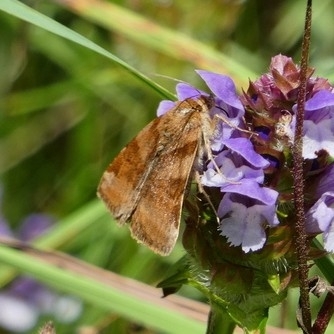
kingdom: Animalia
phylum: Arthropoda
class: Insecta
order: Lepidoptera
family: Erebidae
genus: Euclidia
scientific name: Euclidia glyphica
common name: Burnet companion
